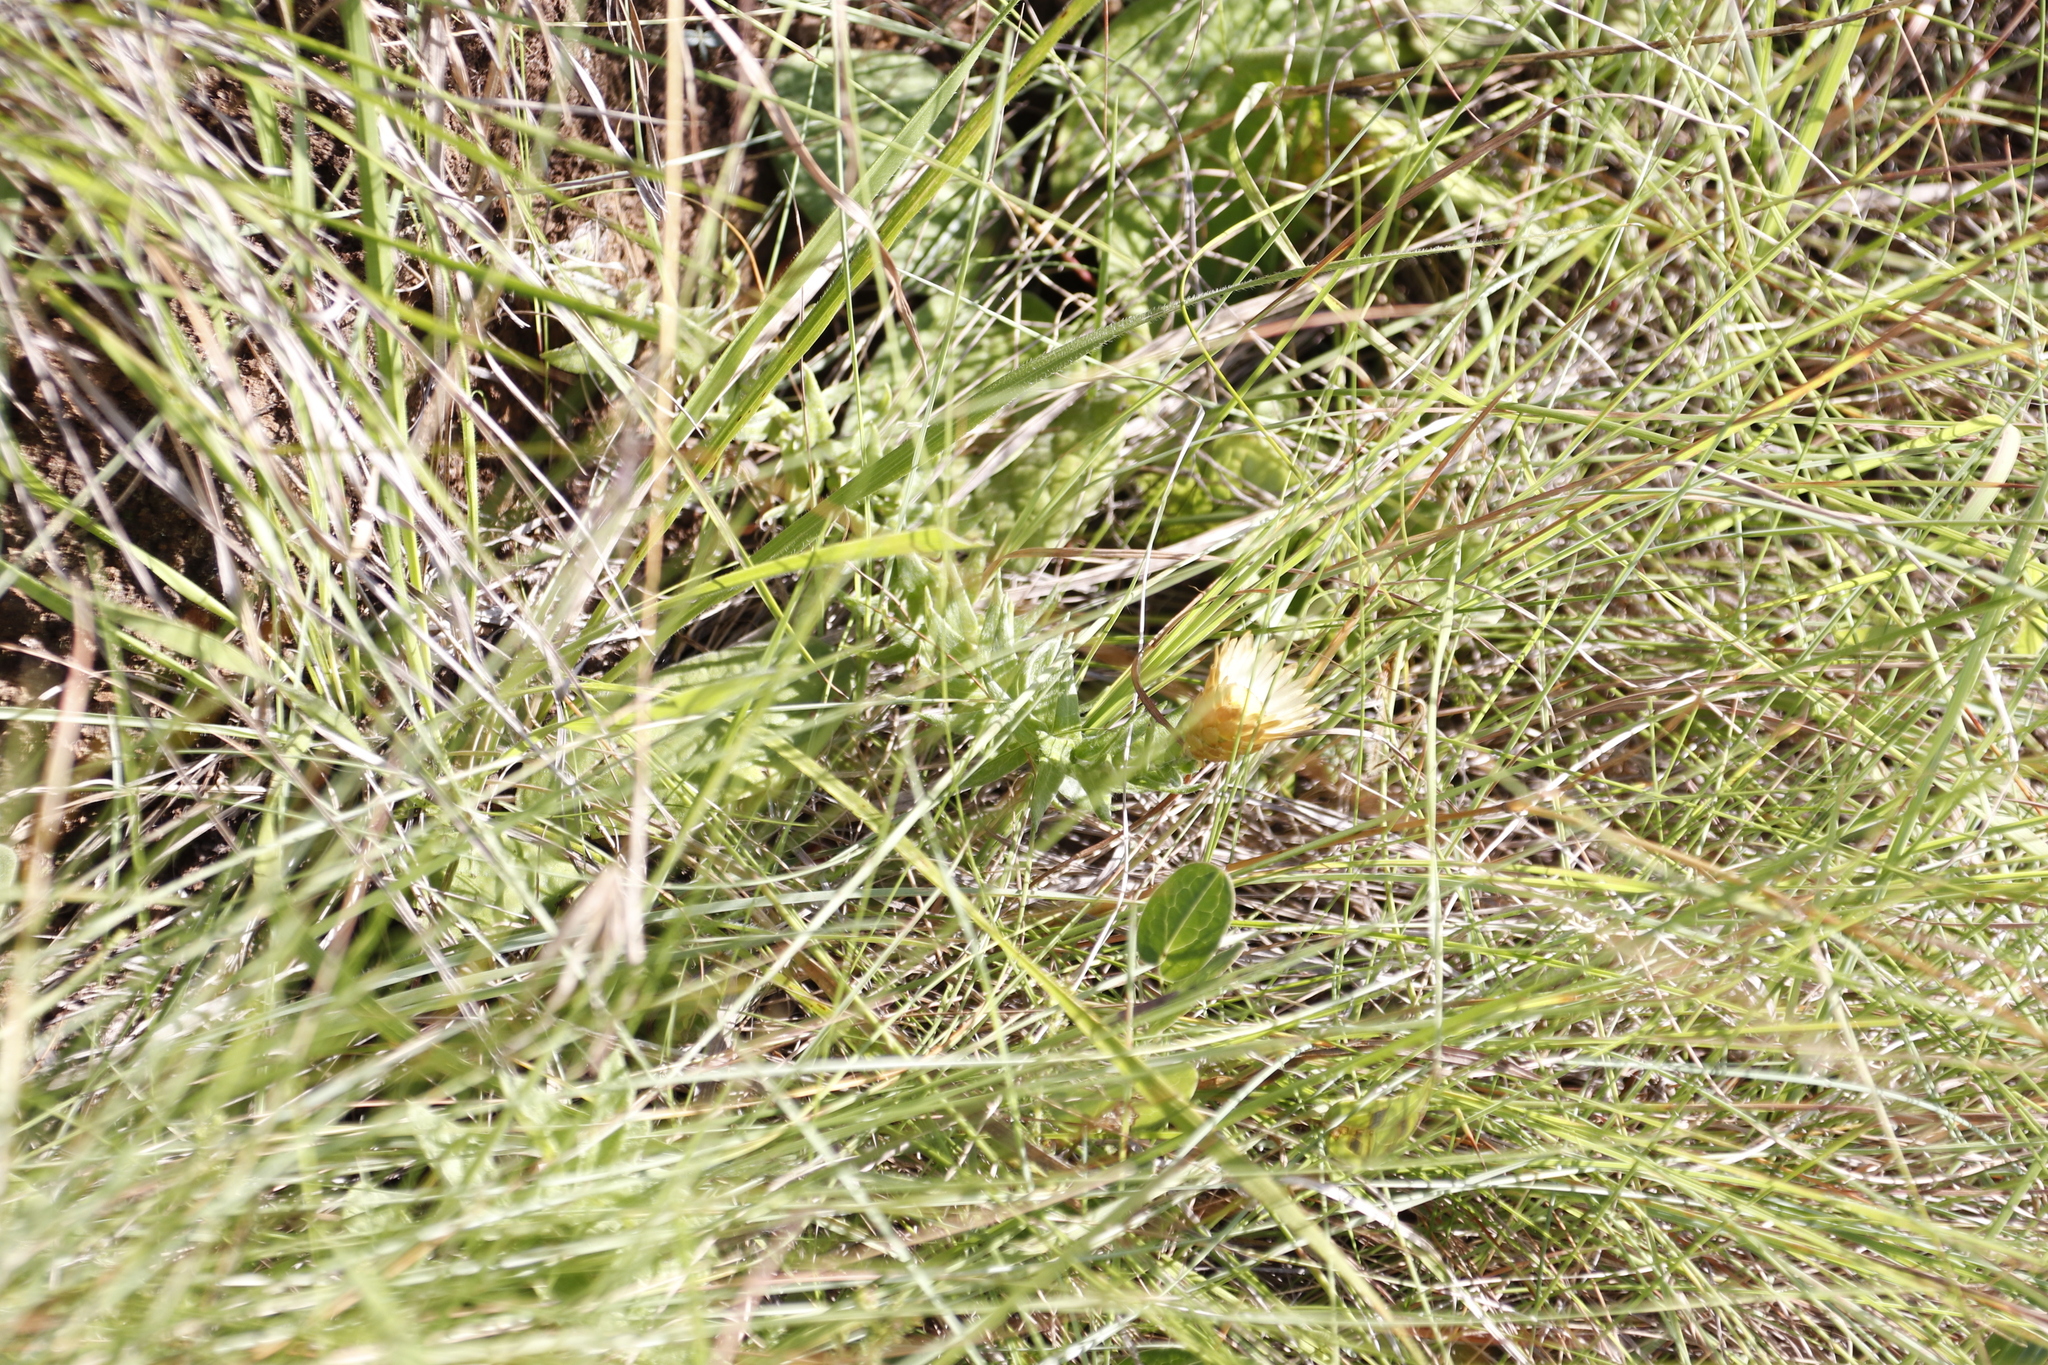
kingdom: Plantae
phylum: Tracheophyta
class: Magnoliopsida
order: Asterales
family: Asteraceae
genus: Helichrysum
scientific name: Helichrysum herbaceum
